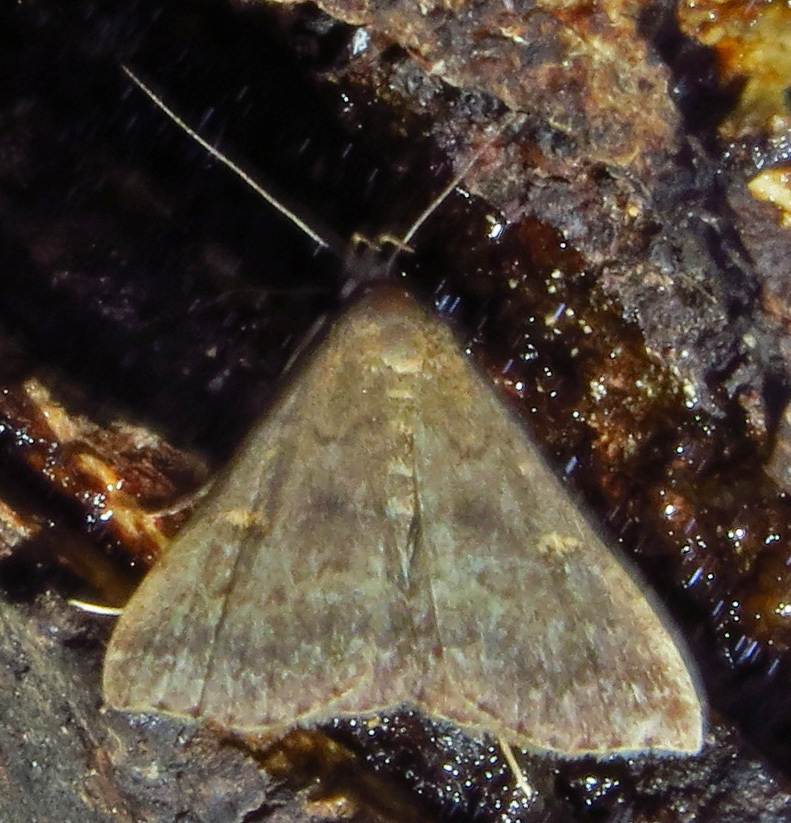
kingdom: Animalia
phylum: Arthropoda
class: Insecta
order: Lepidoptera
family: Erebidae
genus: Tetanolita
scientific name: Tetanolita floridana
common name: Florida tetanolita moth
